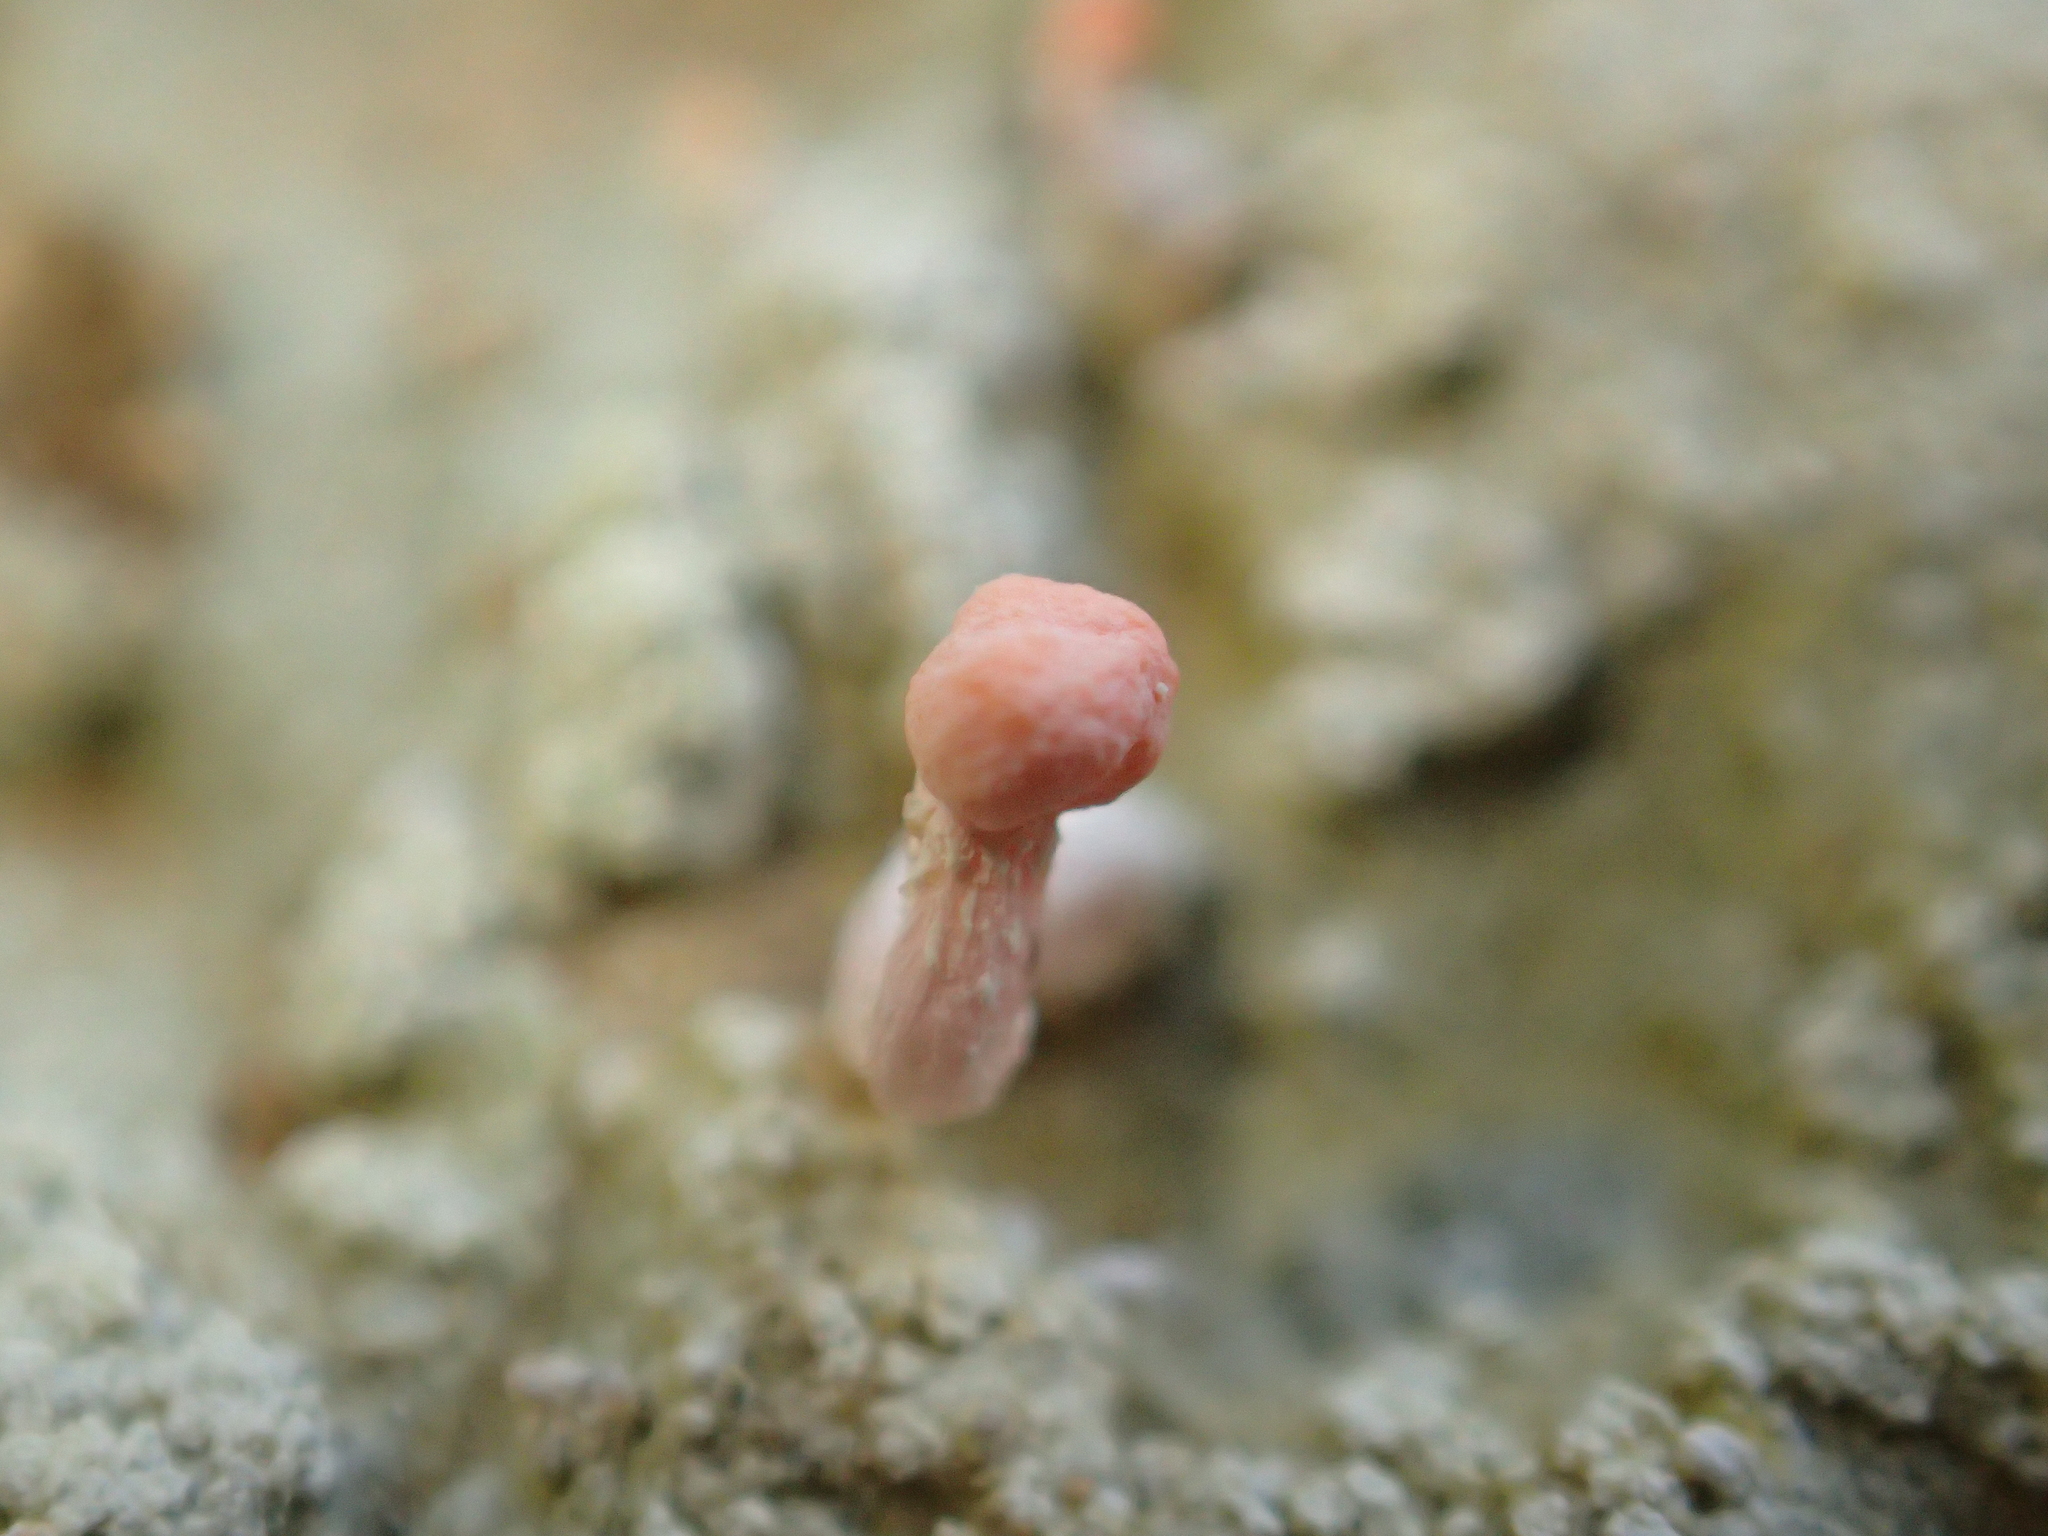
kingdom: Fungi
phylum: Ascomycota
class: Lecanoromycetes
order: Pertusariales
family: Icmadophilaceae
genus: Dibaeis
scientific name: Dibaeis arcuata
